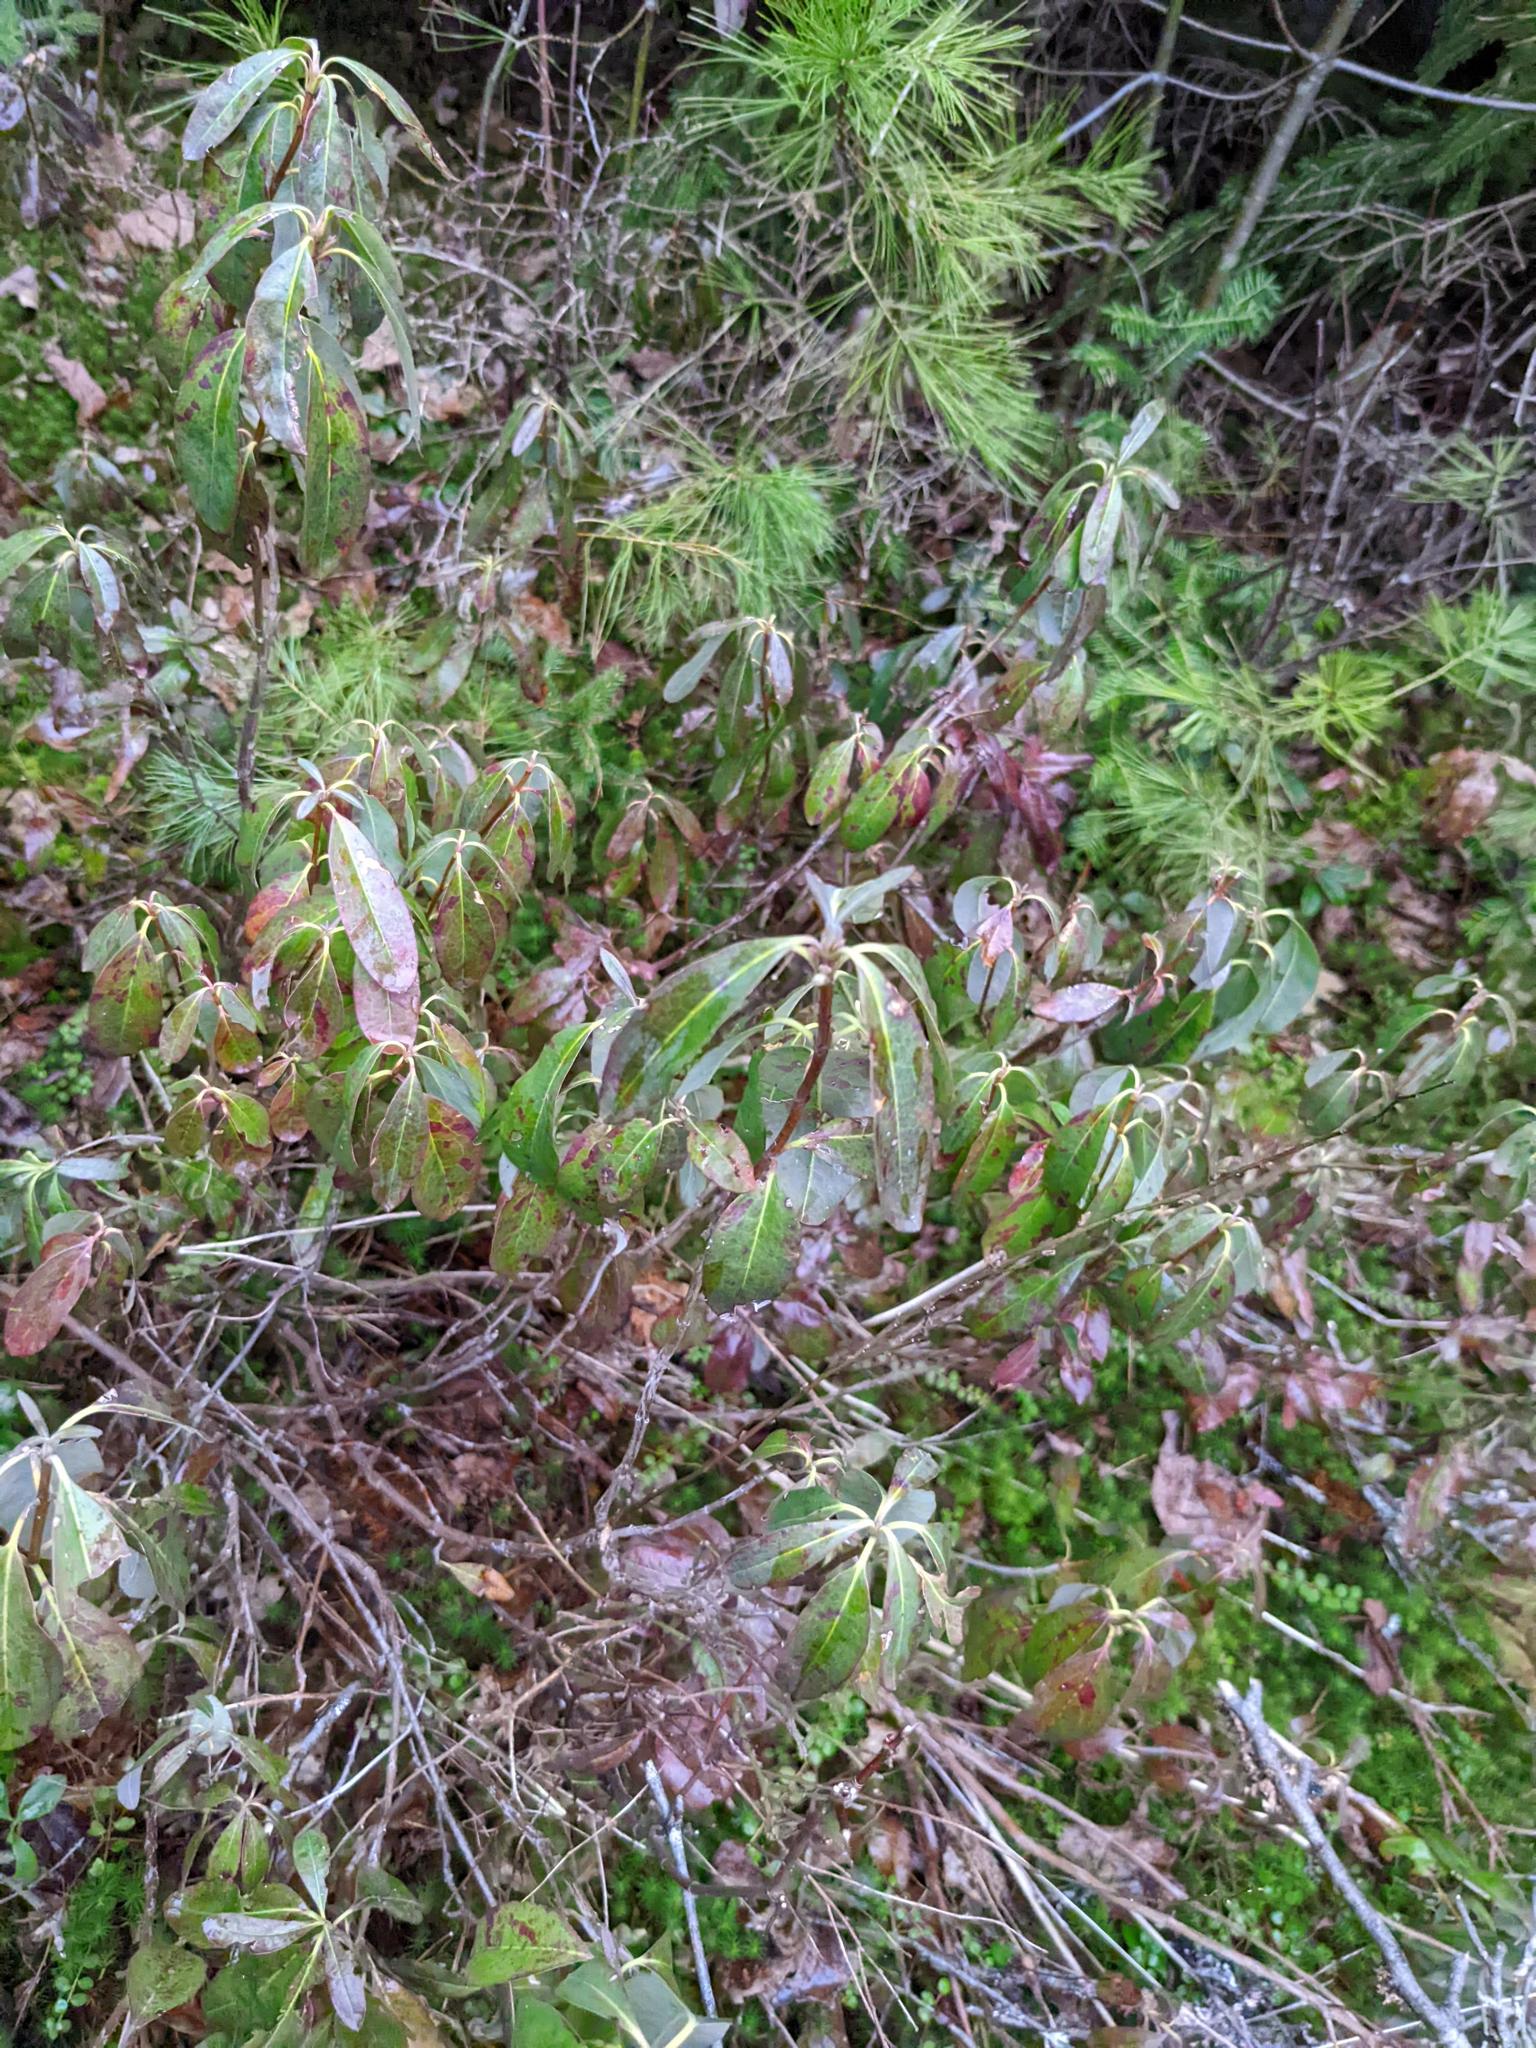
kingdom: Plantae
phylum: Tracheophyta
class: Magnoliopsida
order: Ericales
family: Ericaceae
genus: Kalmia
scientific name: Kalmia angustifolia
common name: Sheep-laurel
